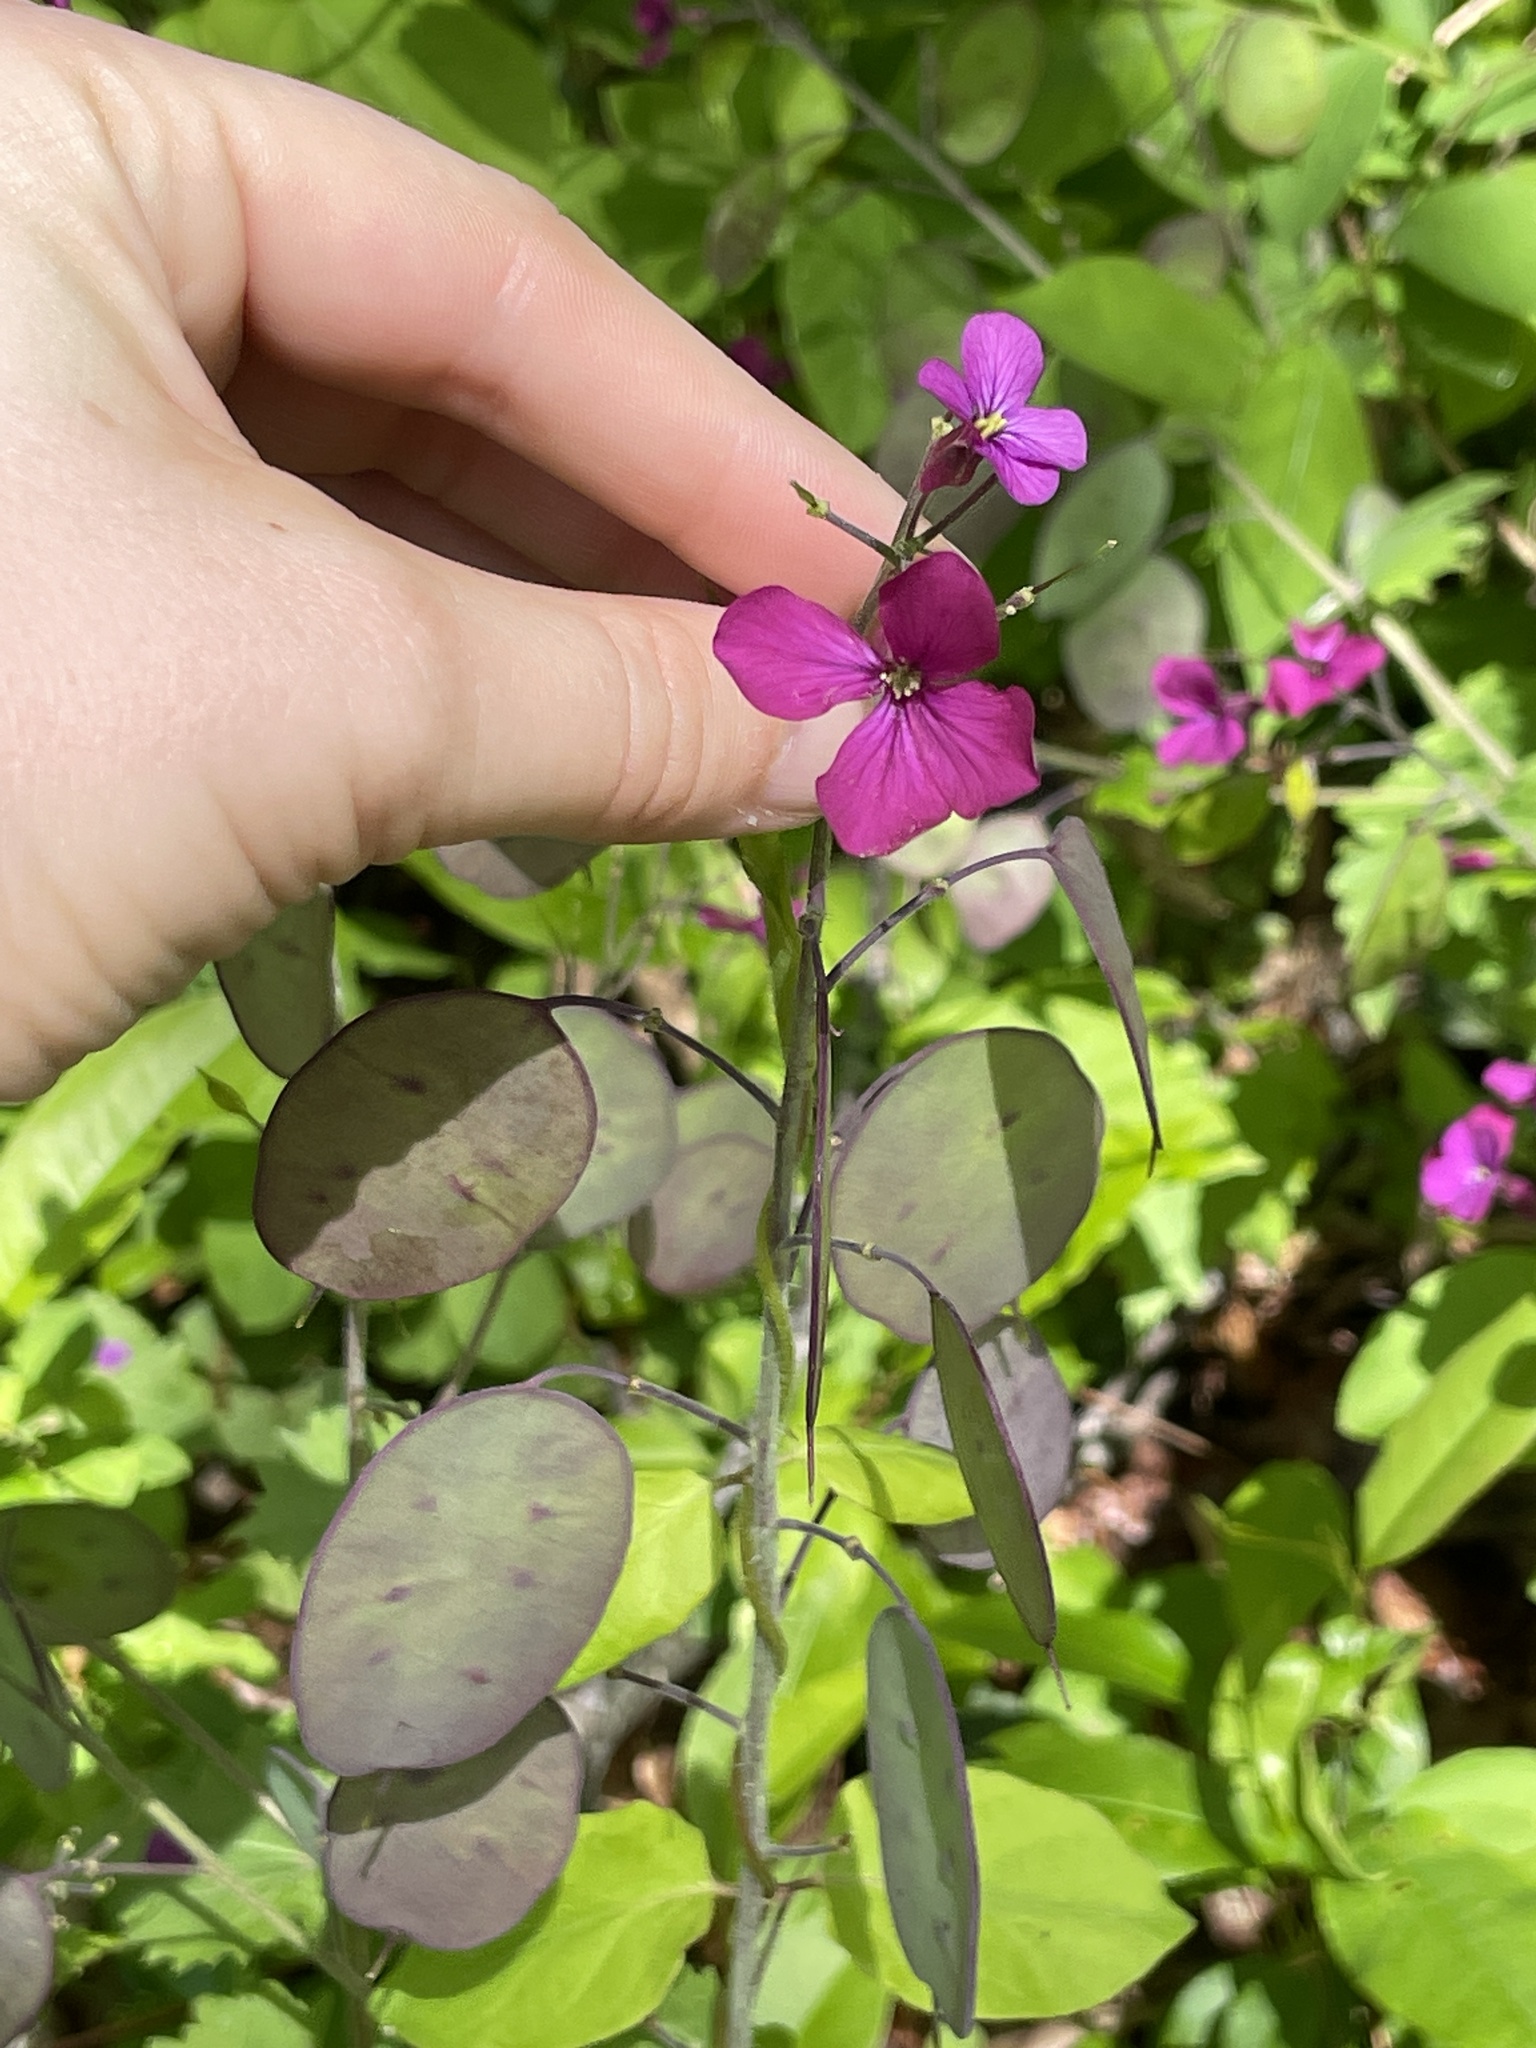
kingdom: Plantae
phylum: Tracheophyta
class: Magnoliopsida
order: Brassicales
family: Brassicaceae
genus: Lunaria
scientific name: Lunaria annua
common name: Honesty
